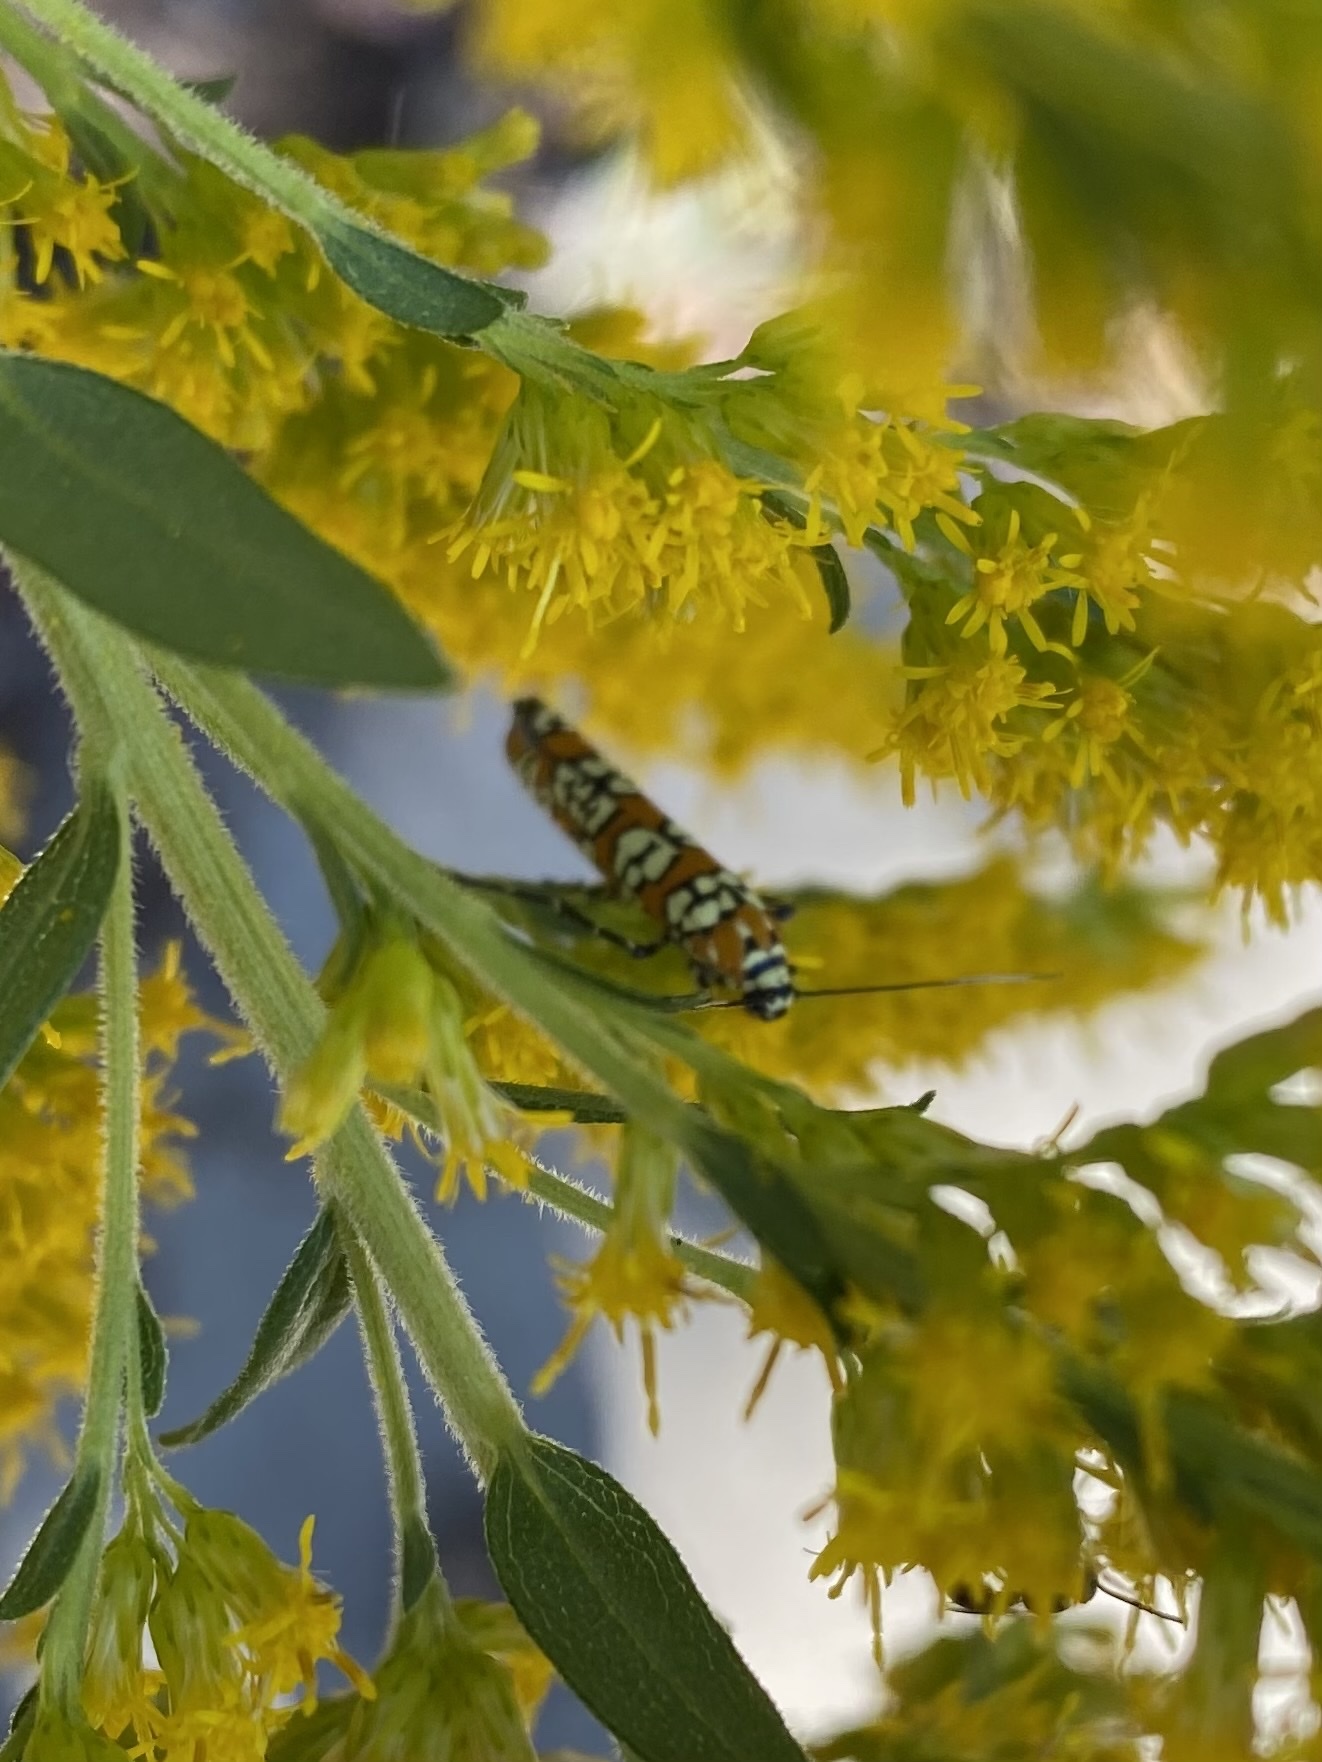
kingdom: Animalia
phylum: Arthropoda
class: Insecta
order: Lepidoptera
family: Attevidae
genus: Atteva
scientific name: Atteva punctella
